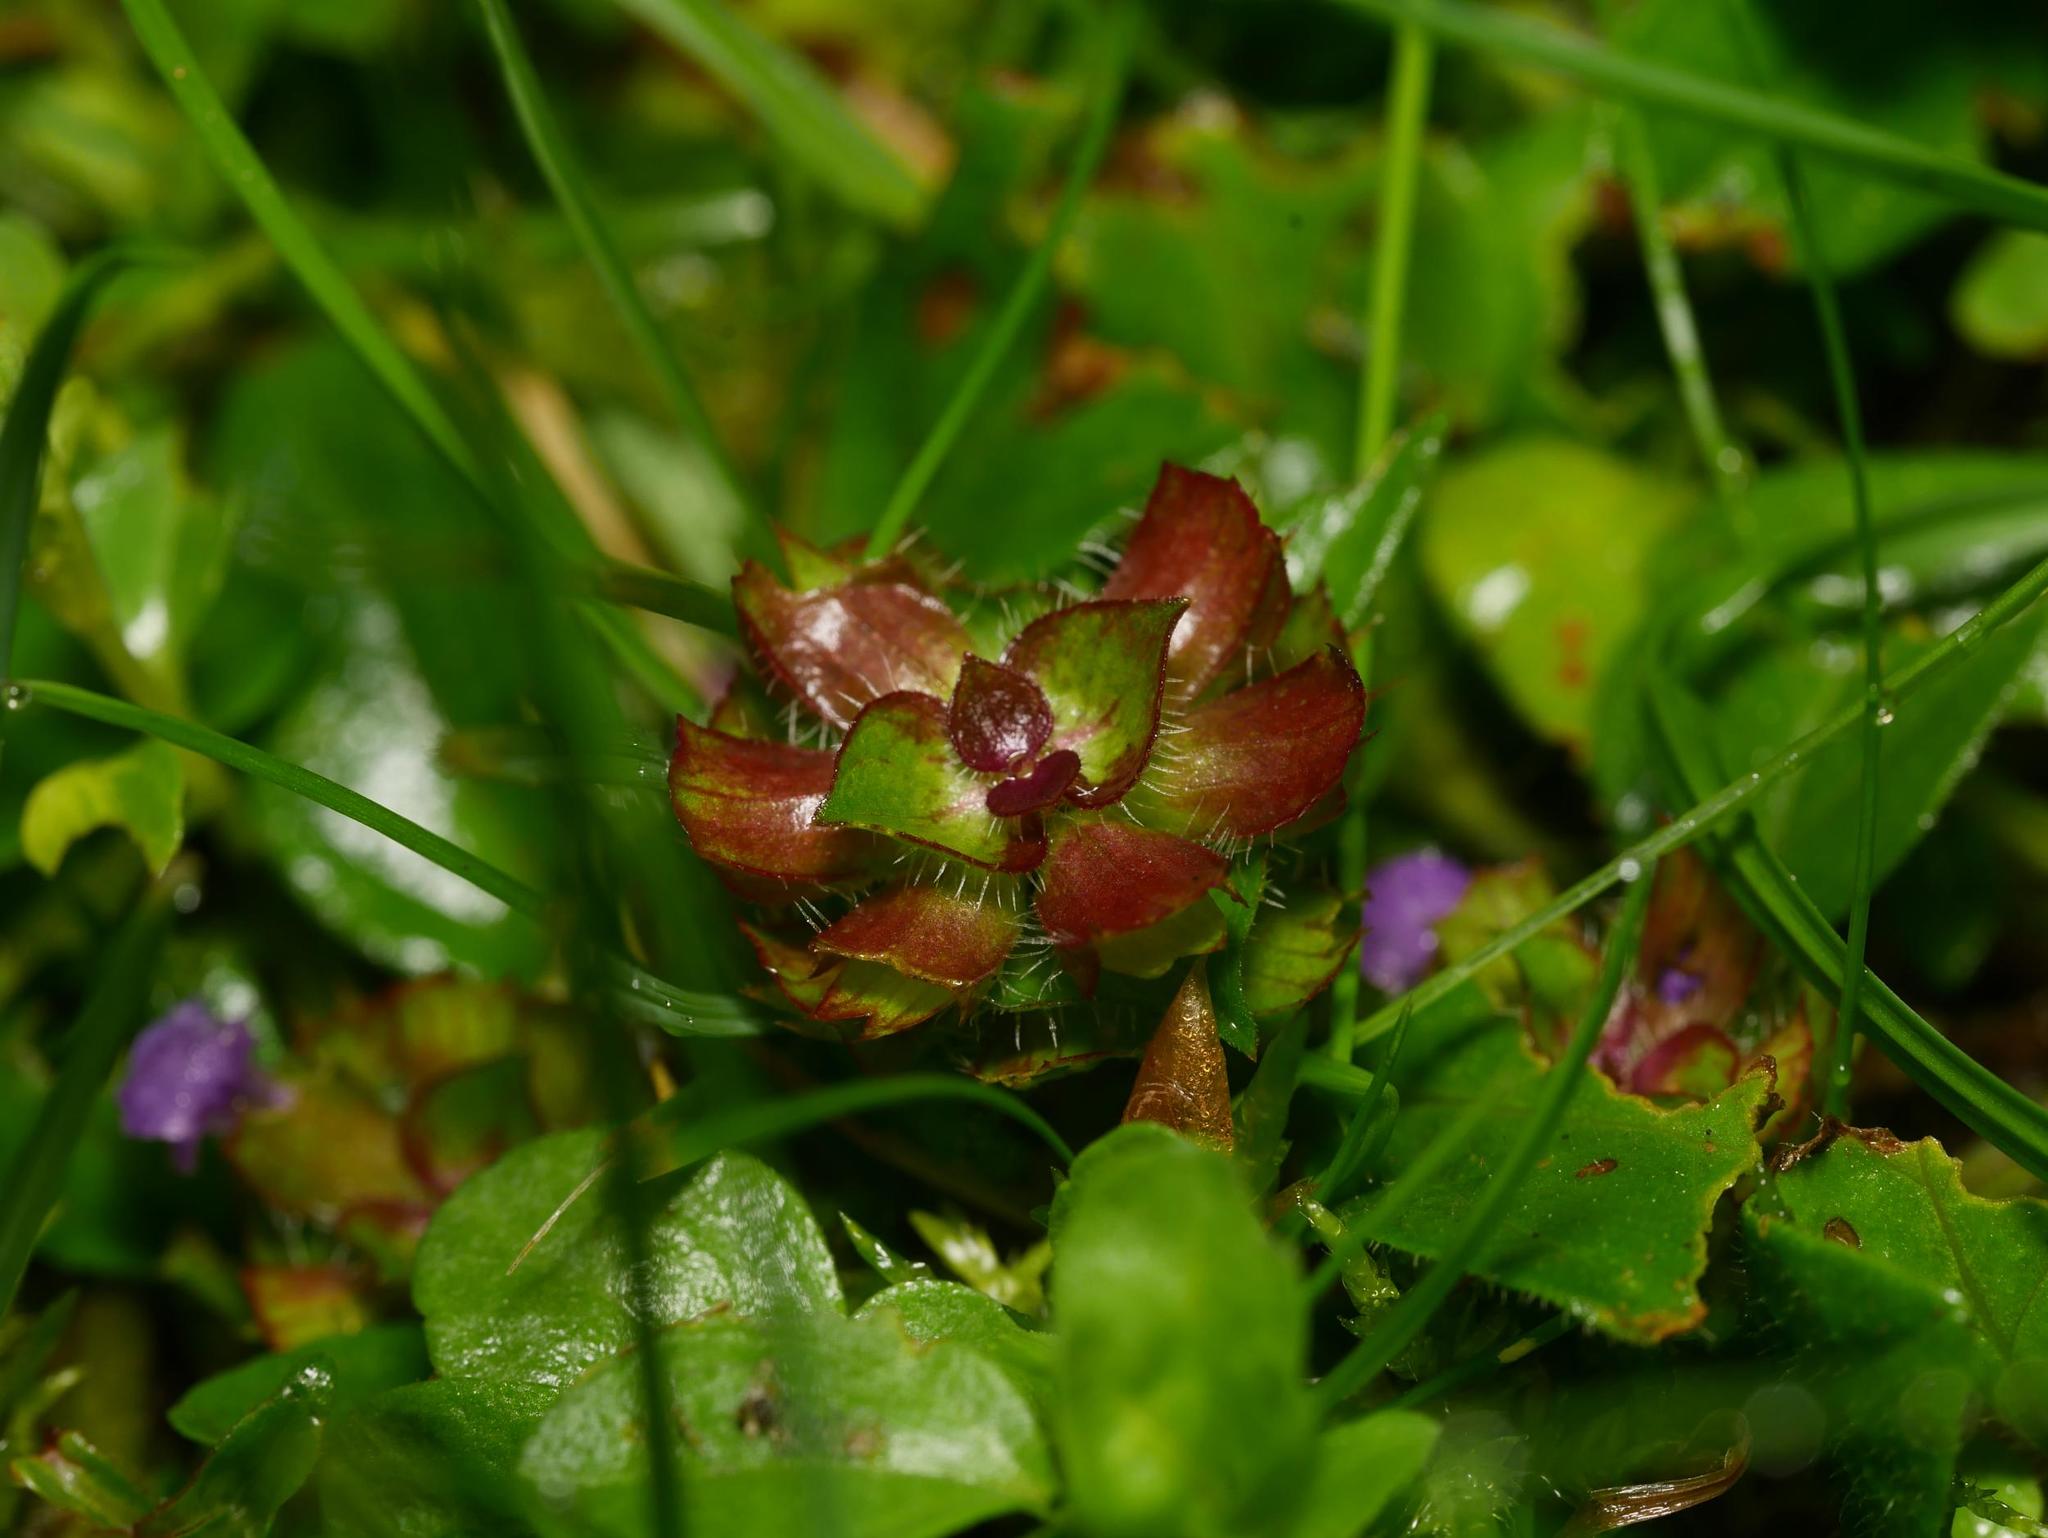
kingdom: Plantae
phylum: Tracheophyta
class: Magnoliopsida
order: Lamiales
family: Lamiaceae
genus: Prunella
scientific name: Prunella vulgaris
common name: Heal-all
